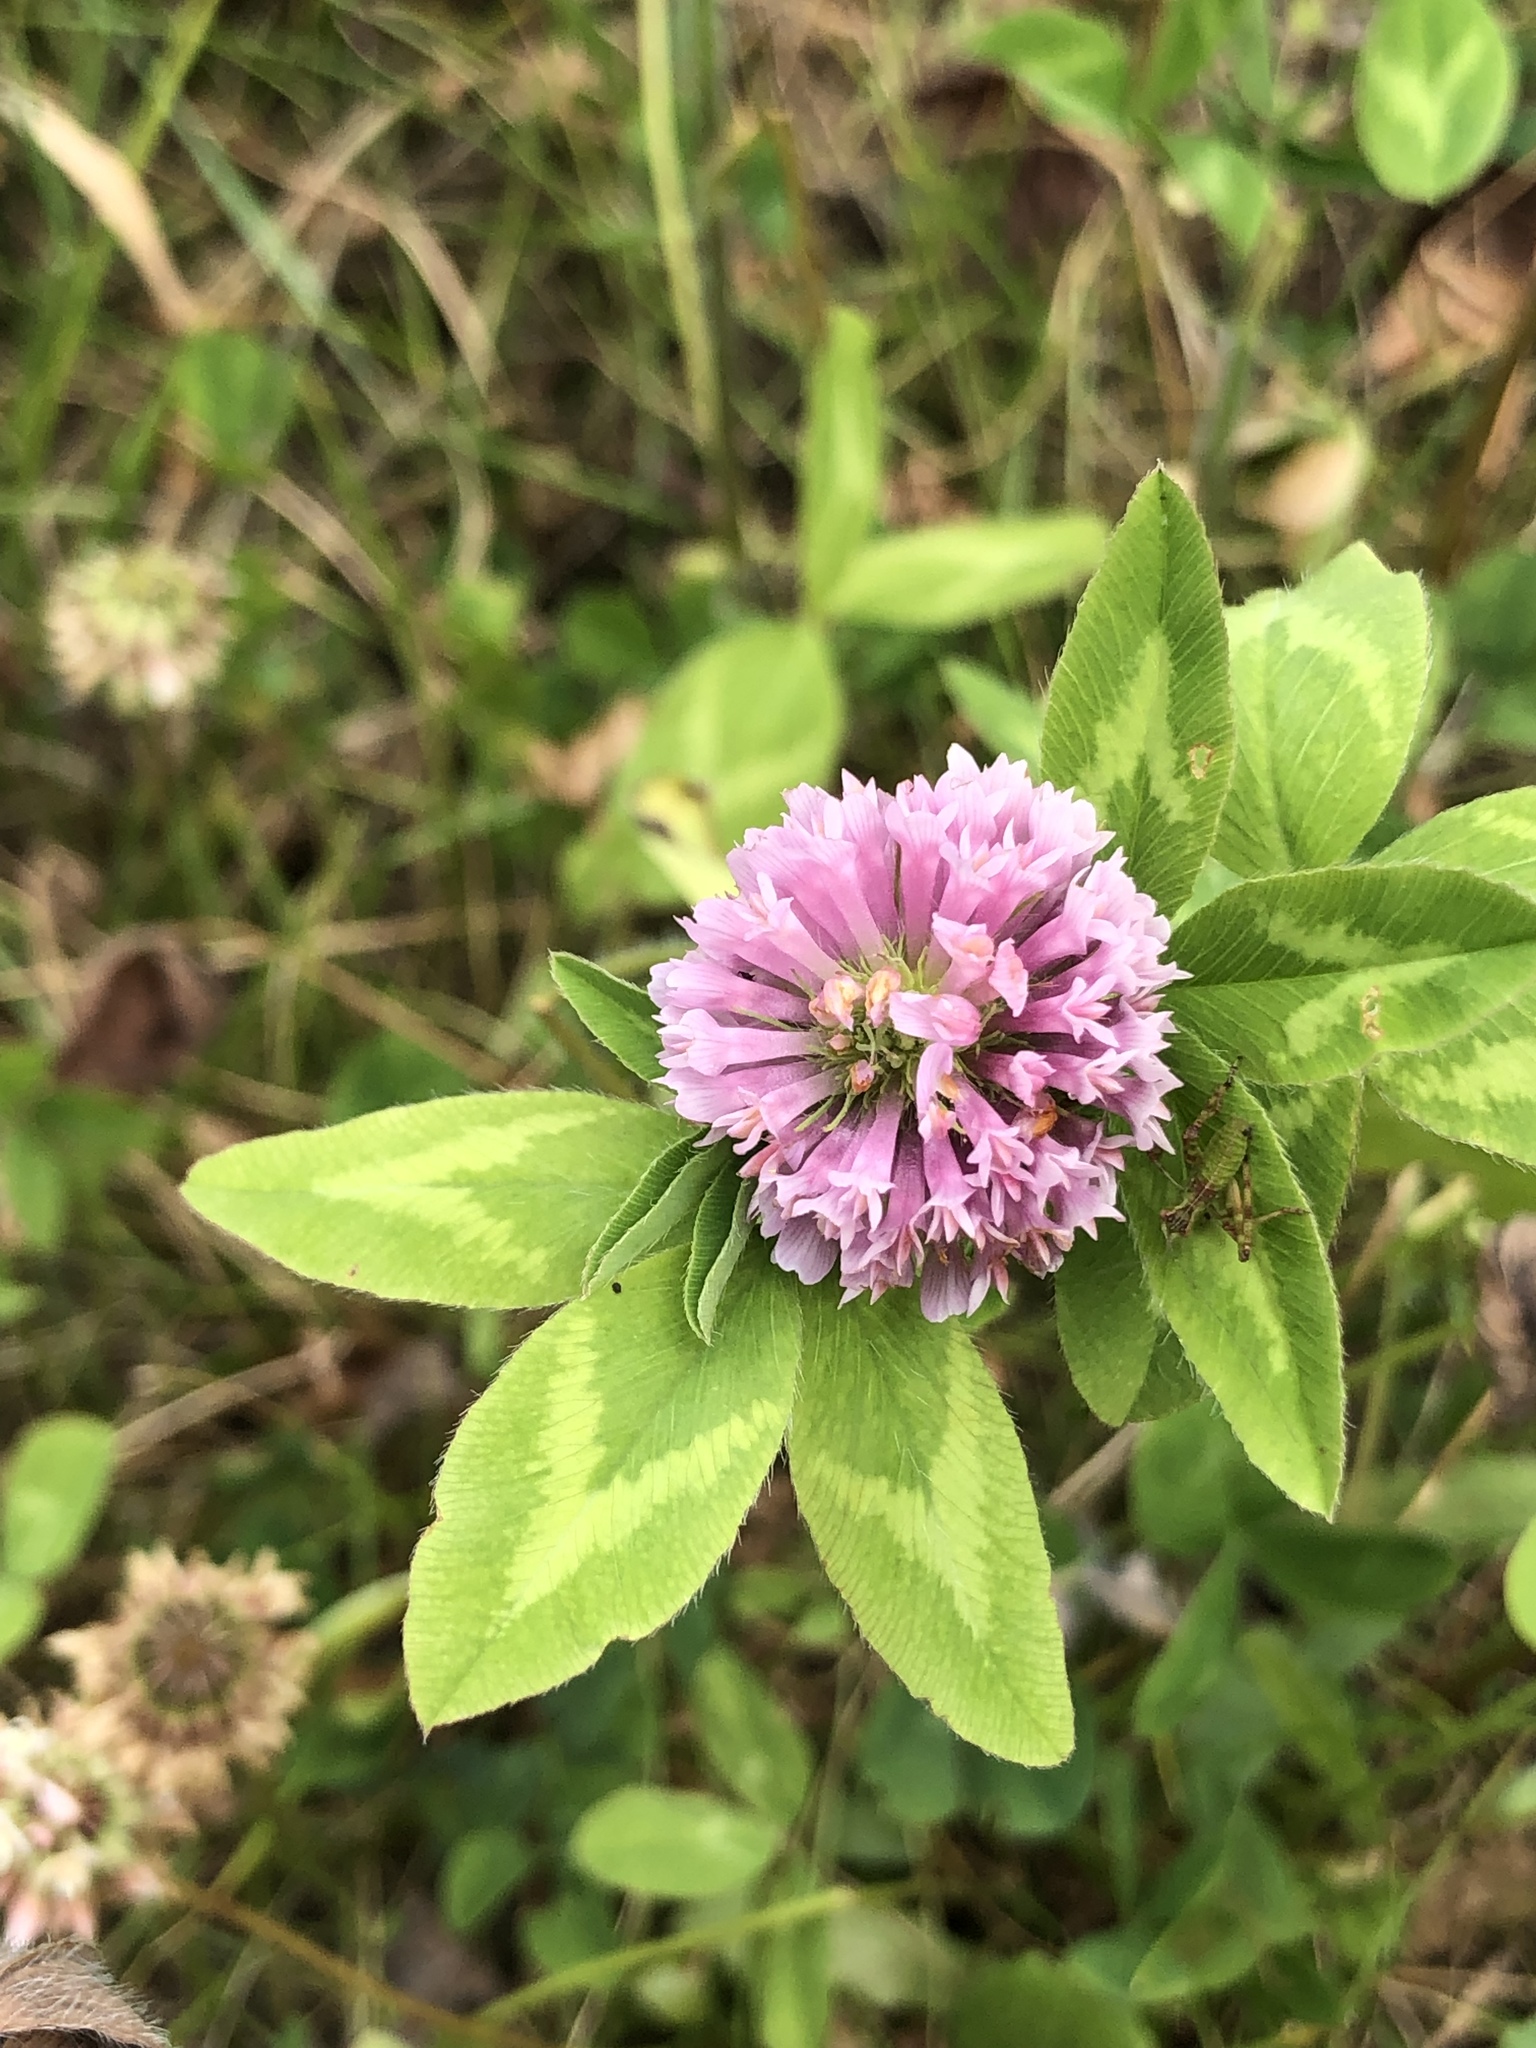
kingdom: Plantae
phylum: Tracheophyta
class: Magnoliopsida
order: Fabales
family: Fabaceae
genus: Trifolium
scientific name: Trifolium pratense
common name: Red clover
